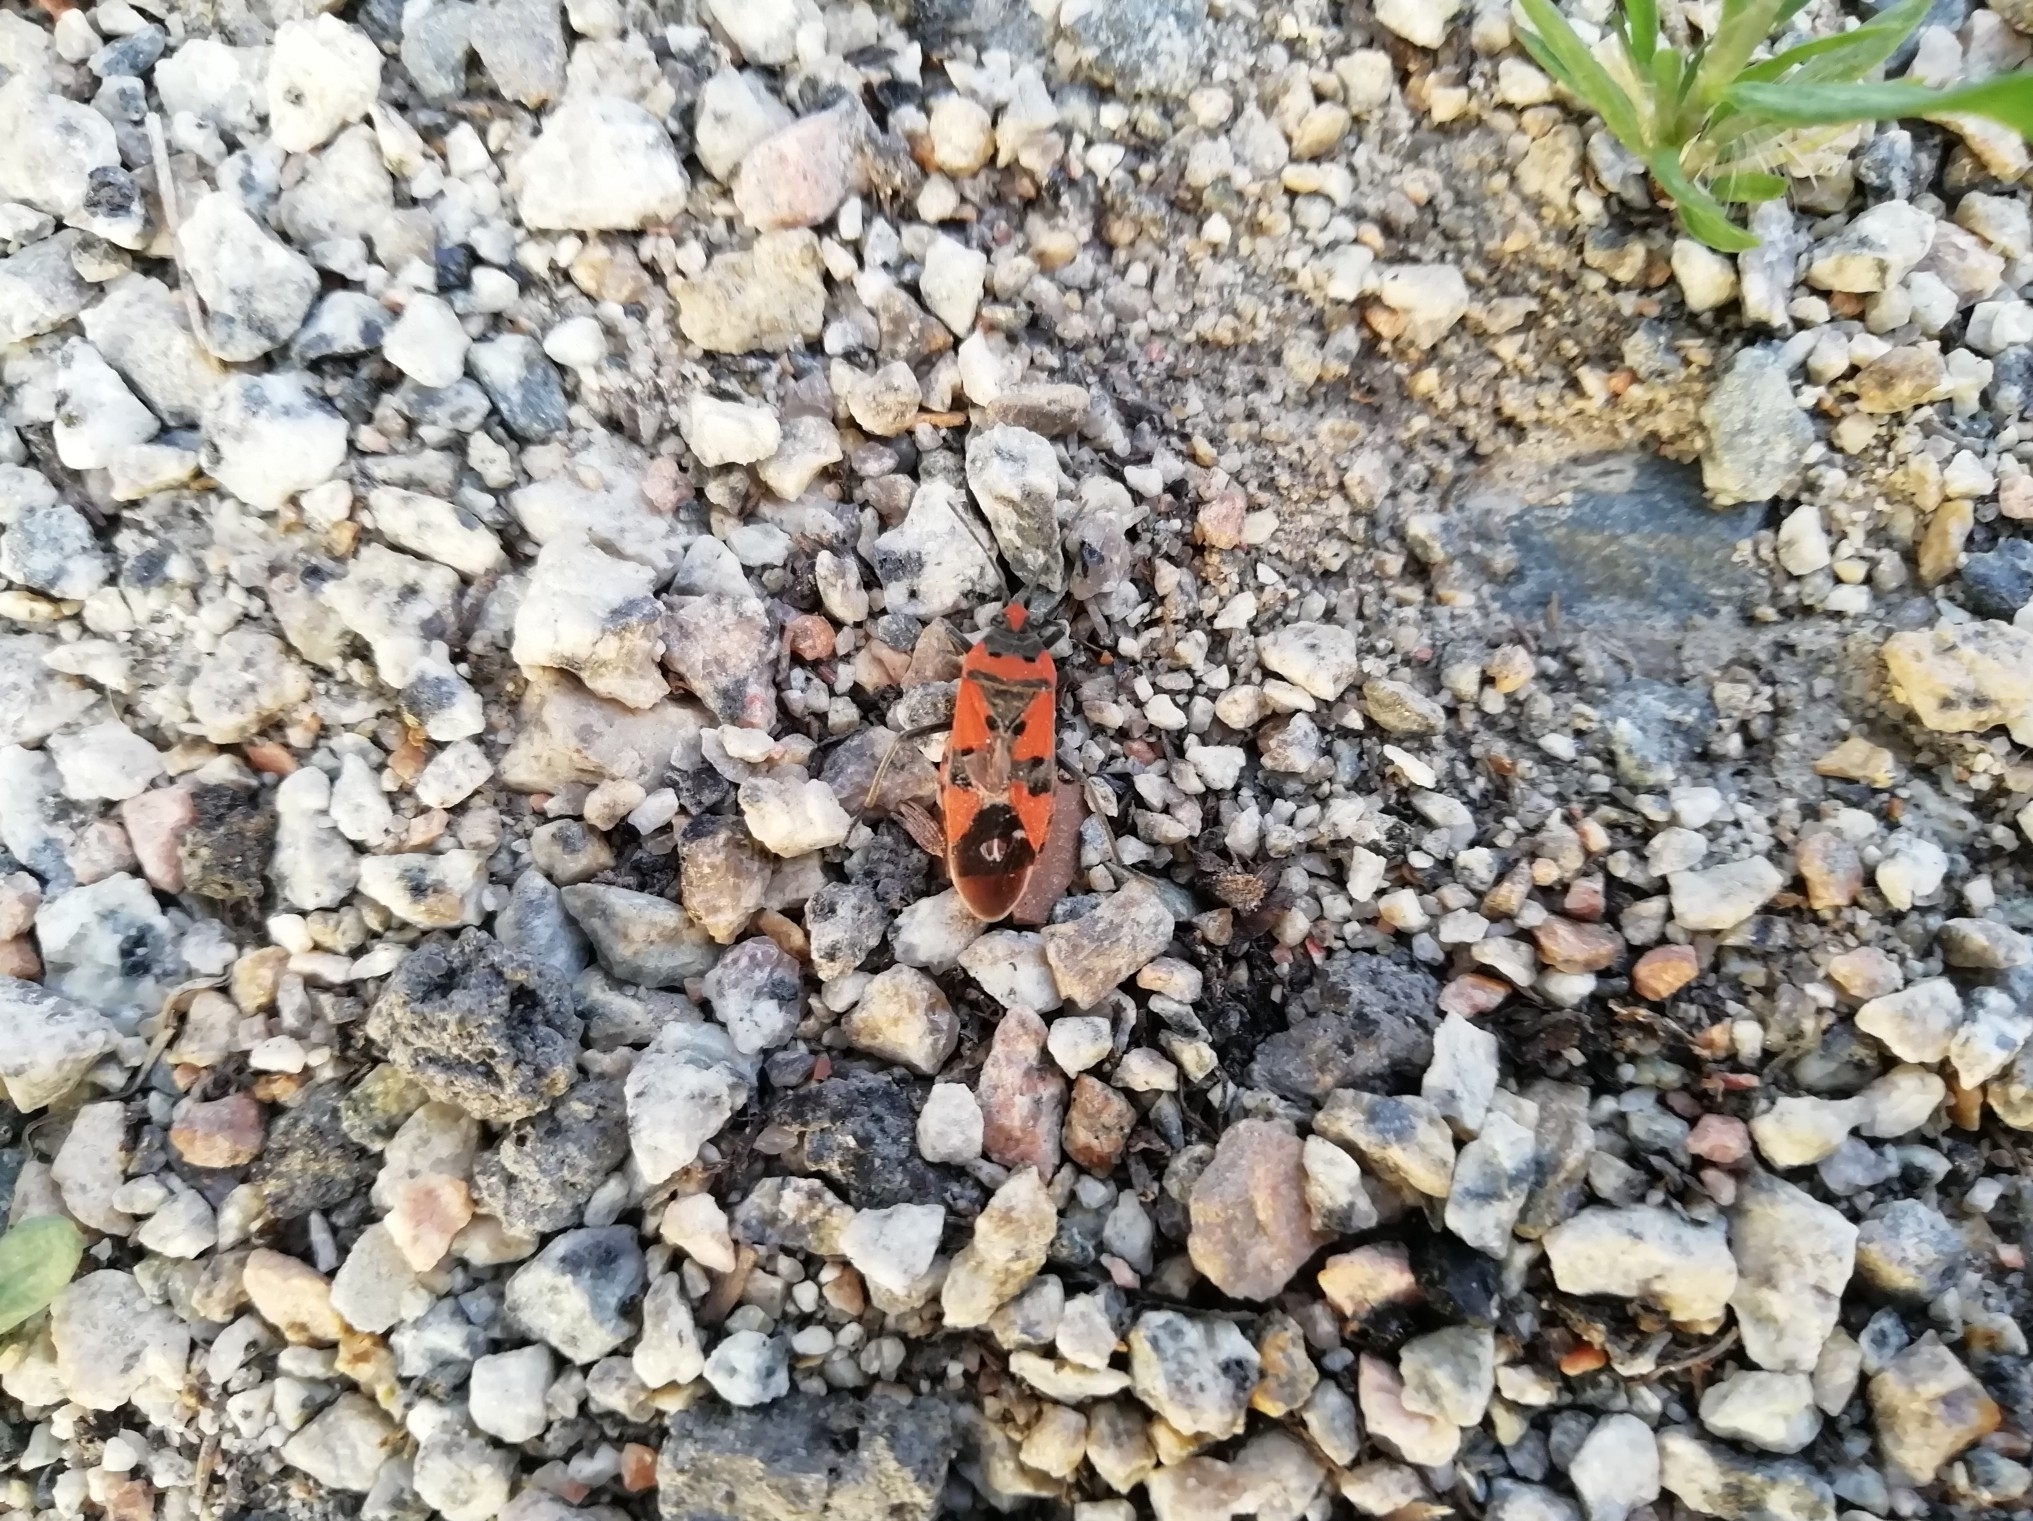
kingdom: Animalia
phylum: Arthropoda
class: Insecta
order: Hemiptera
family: Lygaeidae
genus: Lygaeus
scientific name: Lygaeus equestris
